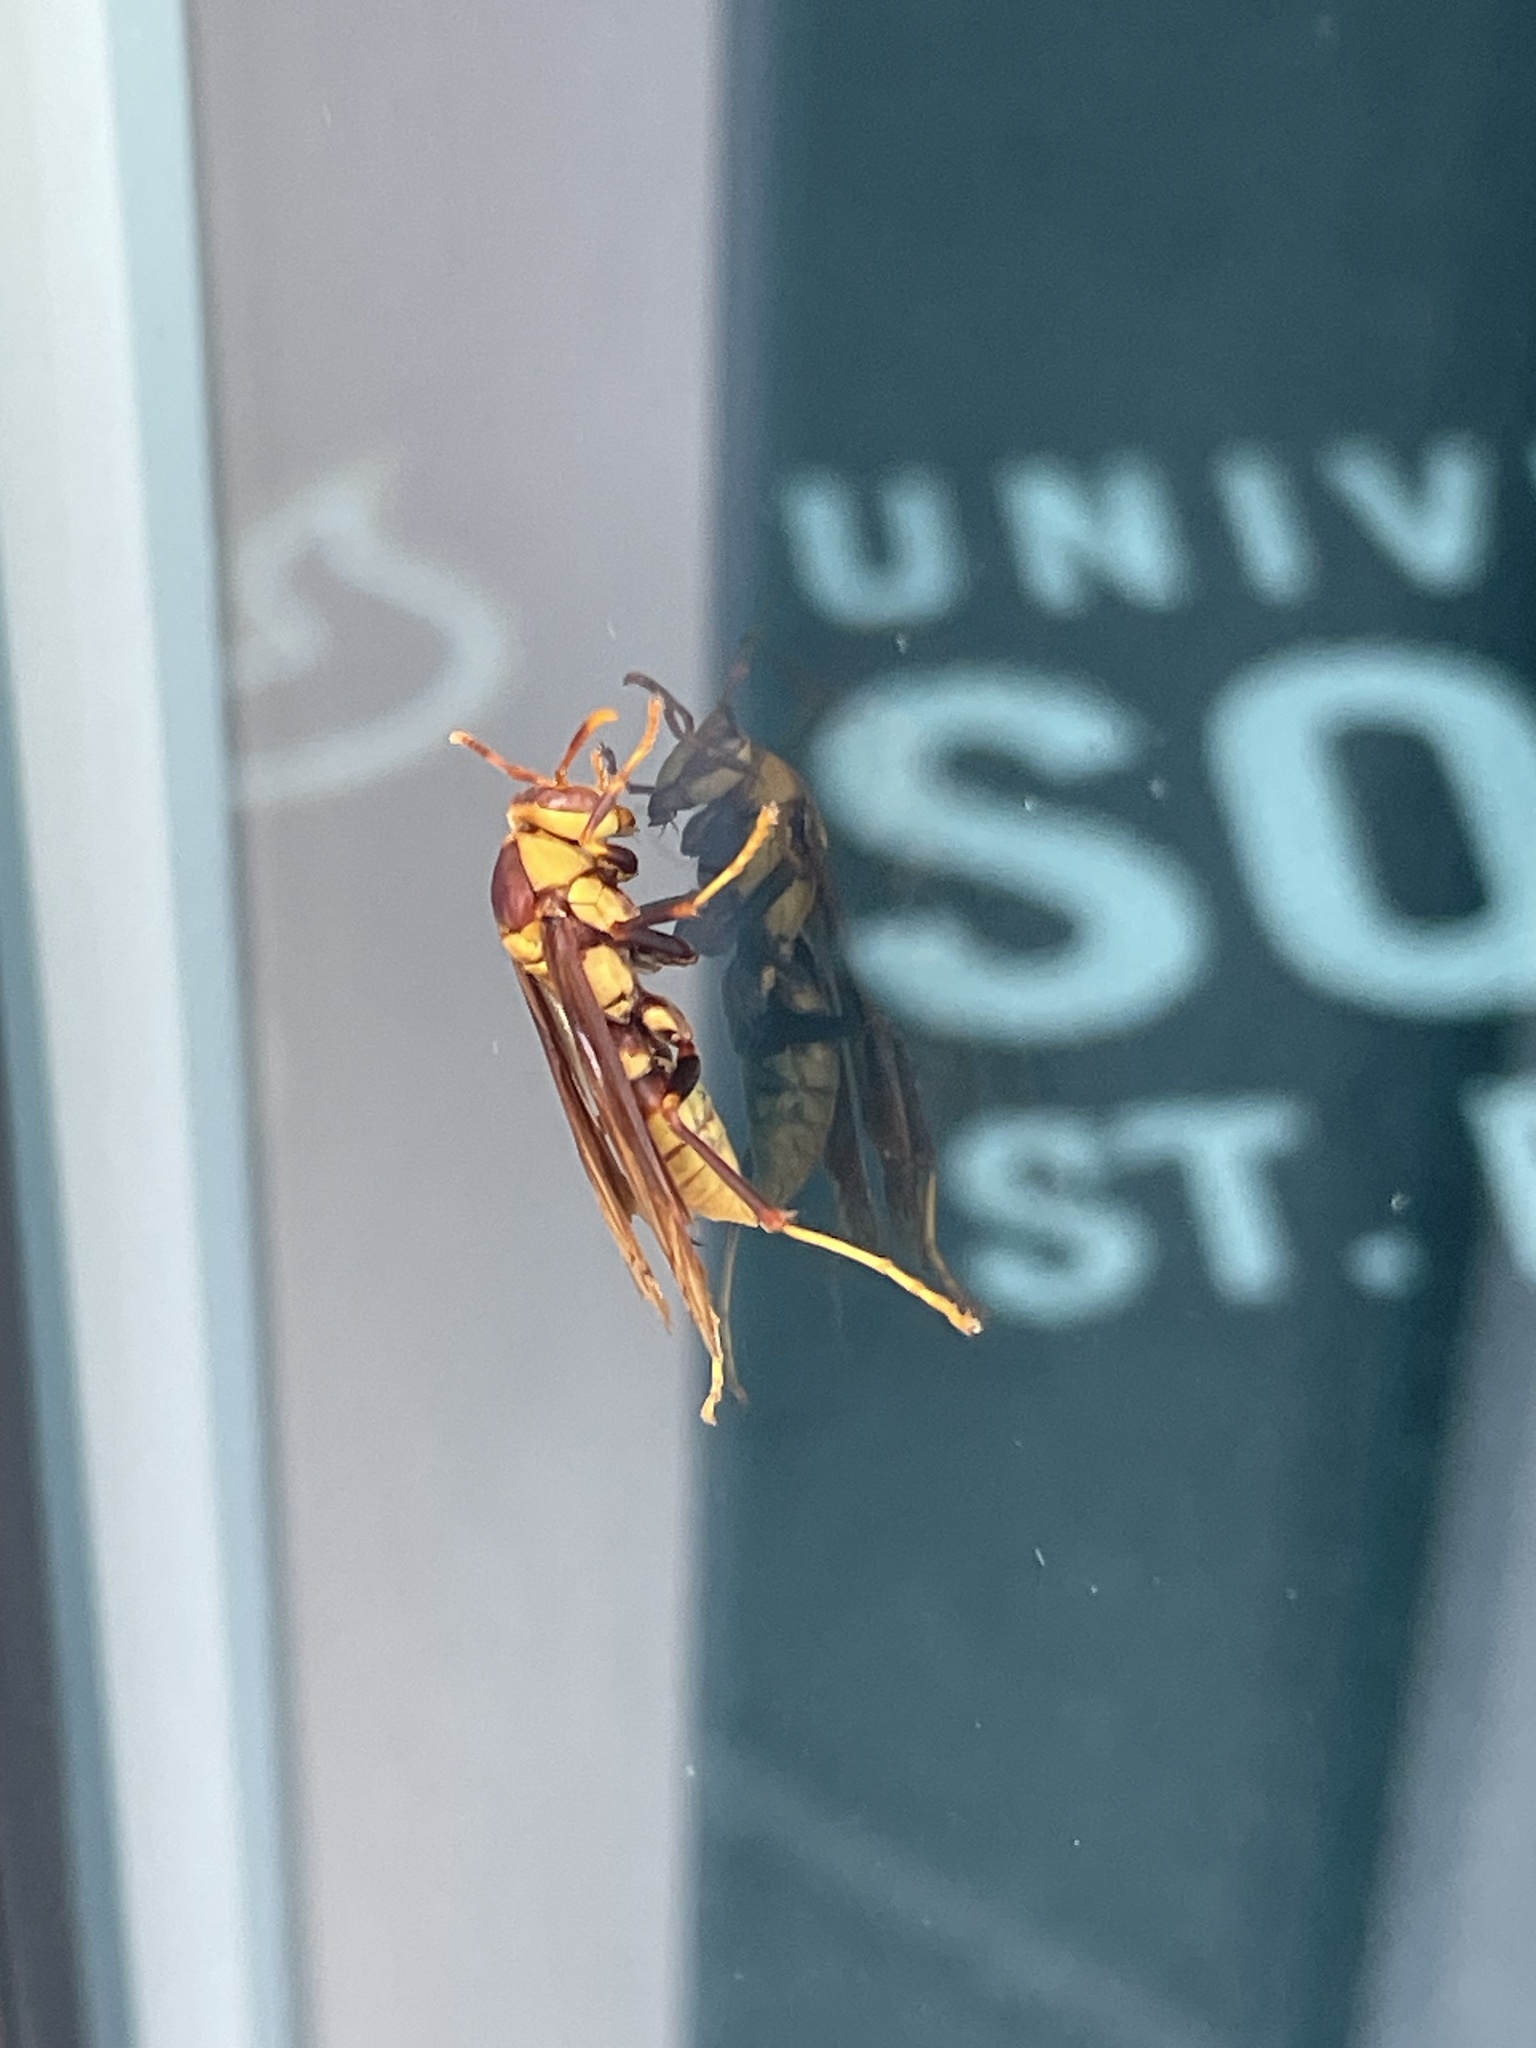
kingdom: Animalia
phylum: Arthropoda
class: Insecta
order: Hymenoptera
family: Eumenidae
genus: Polistes
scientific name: Polistes major
